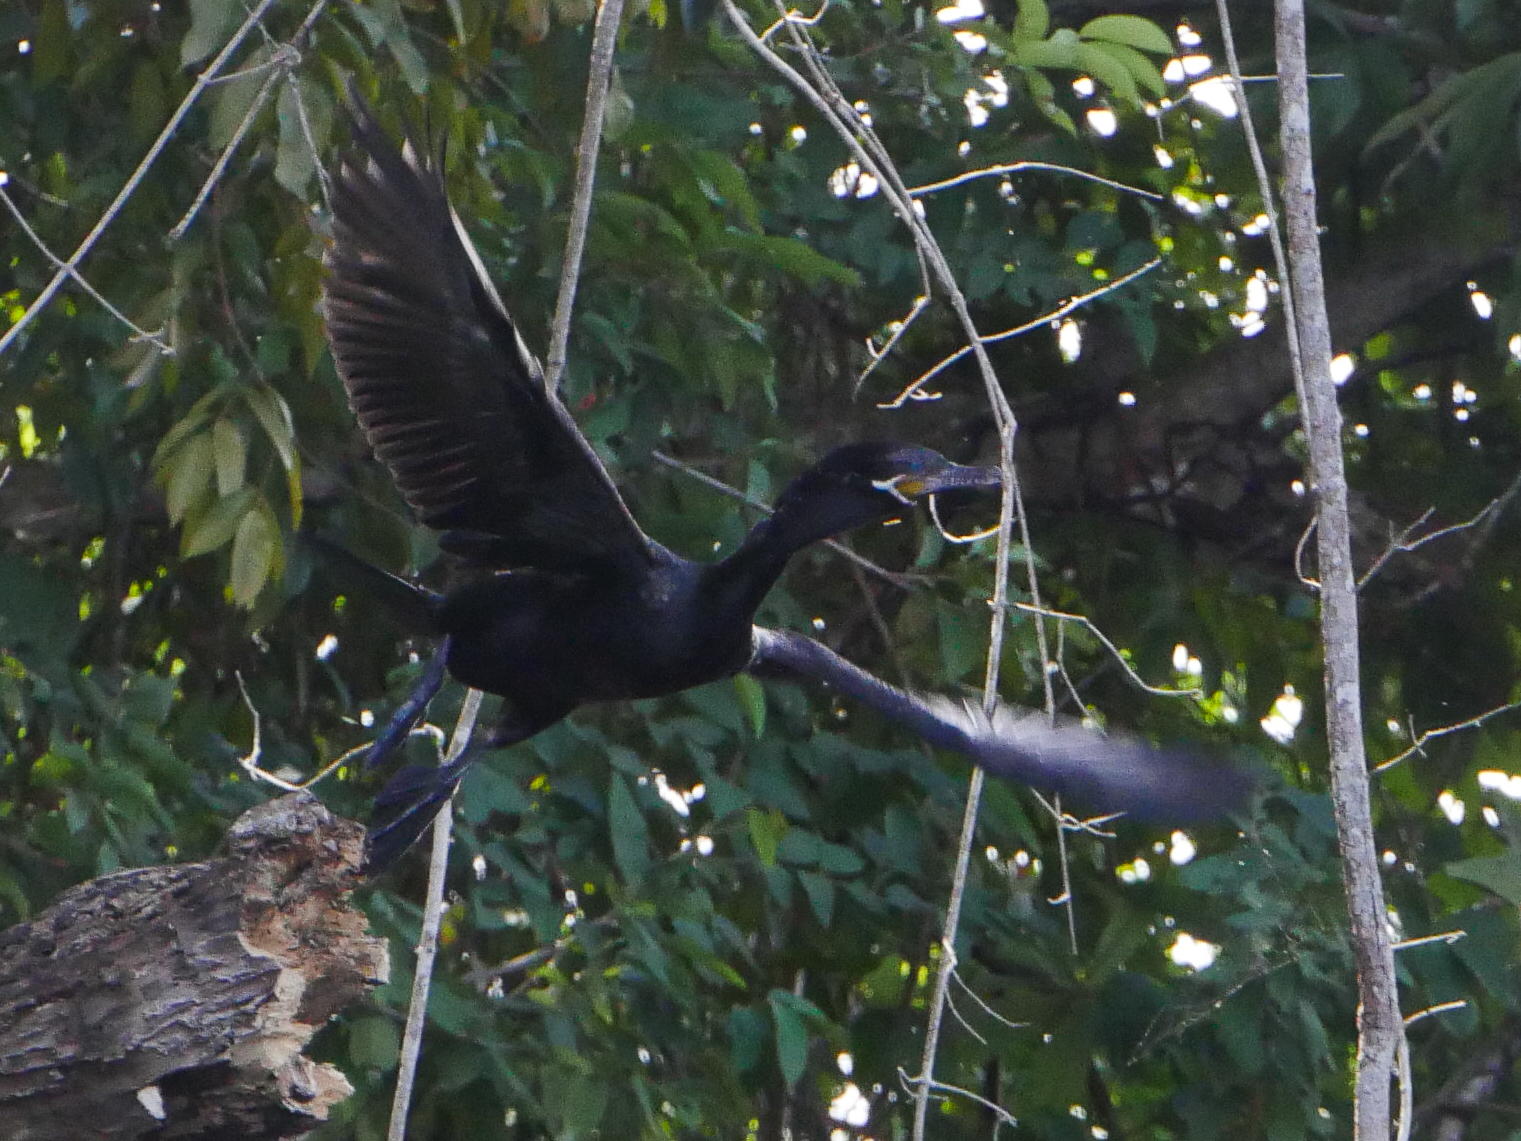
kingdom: Animalia
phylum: Chordata
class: Aves
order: Suliformes
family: Phalacrocoracidae
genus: Phalacrocorax
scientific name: Phalacrocorax brasilianus
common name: Neotropic cormorant
